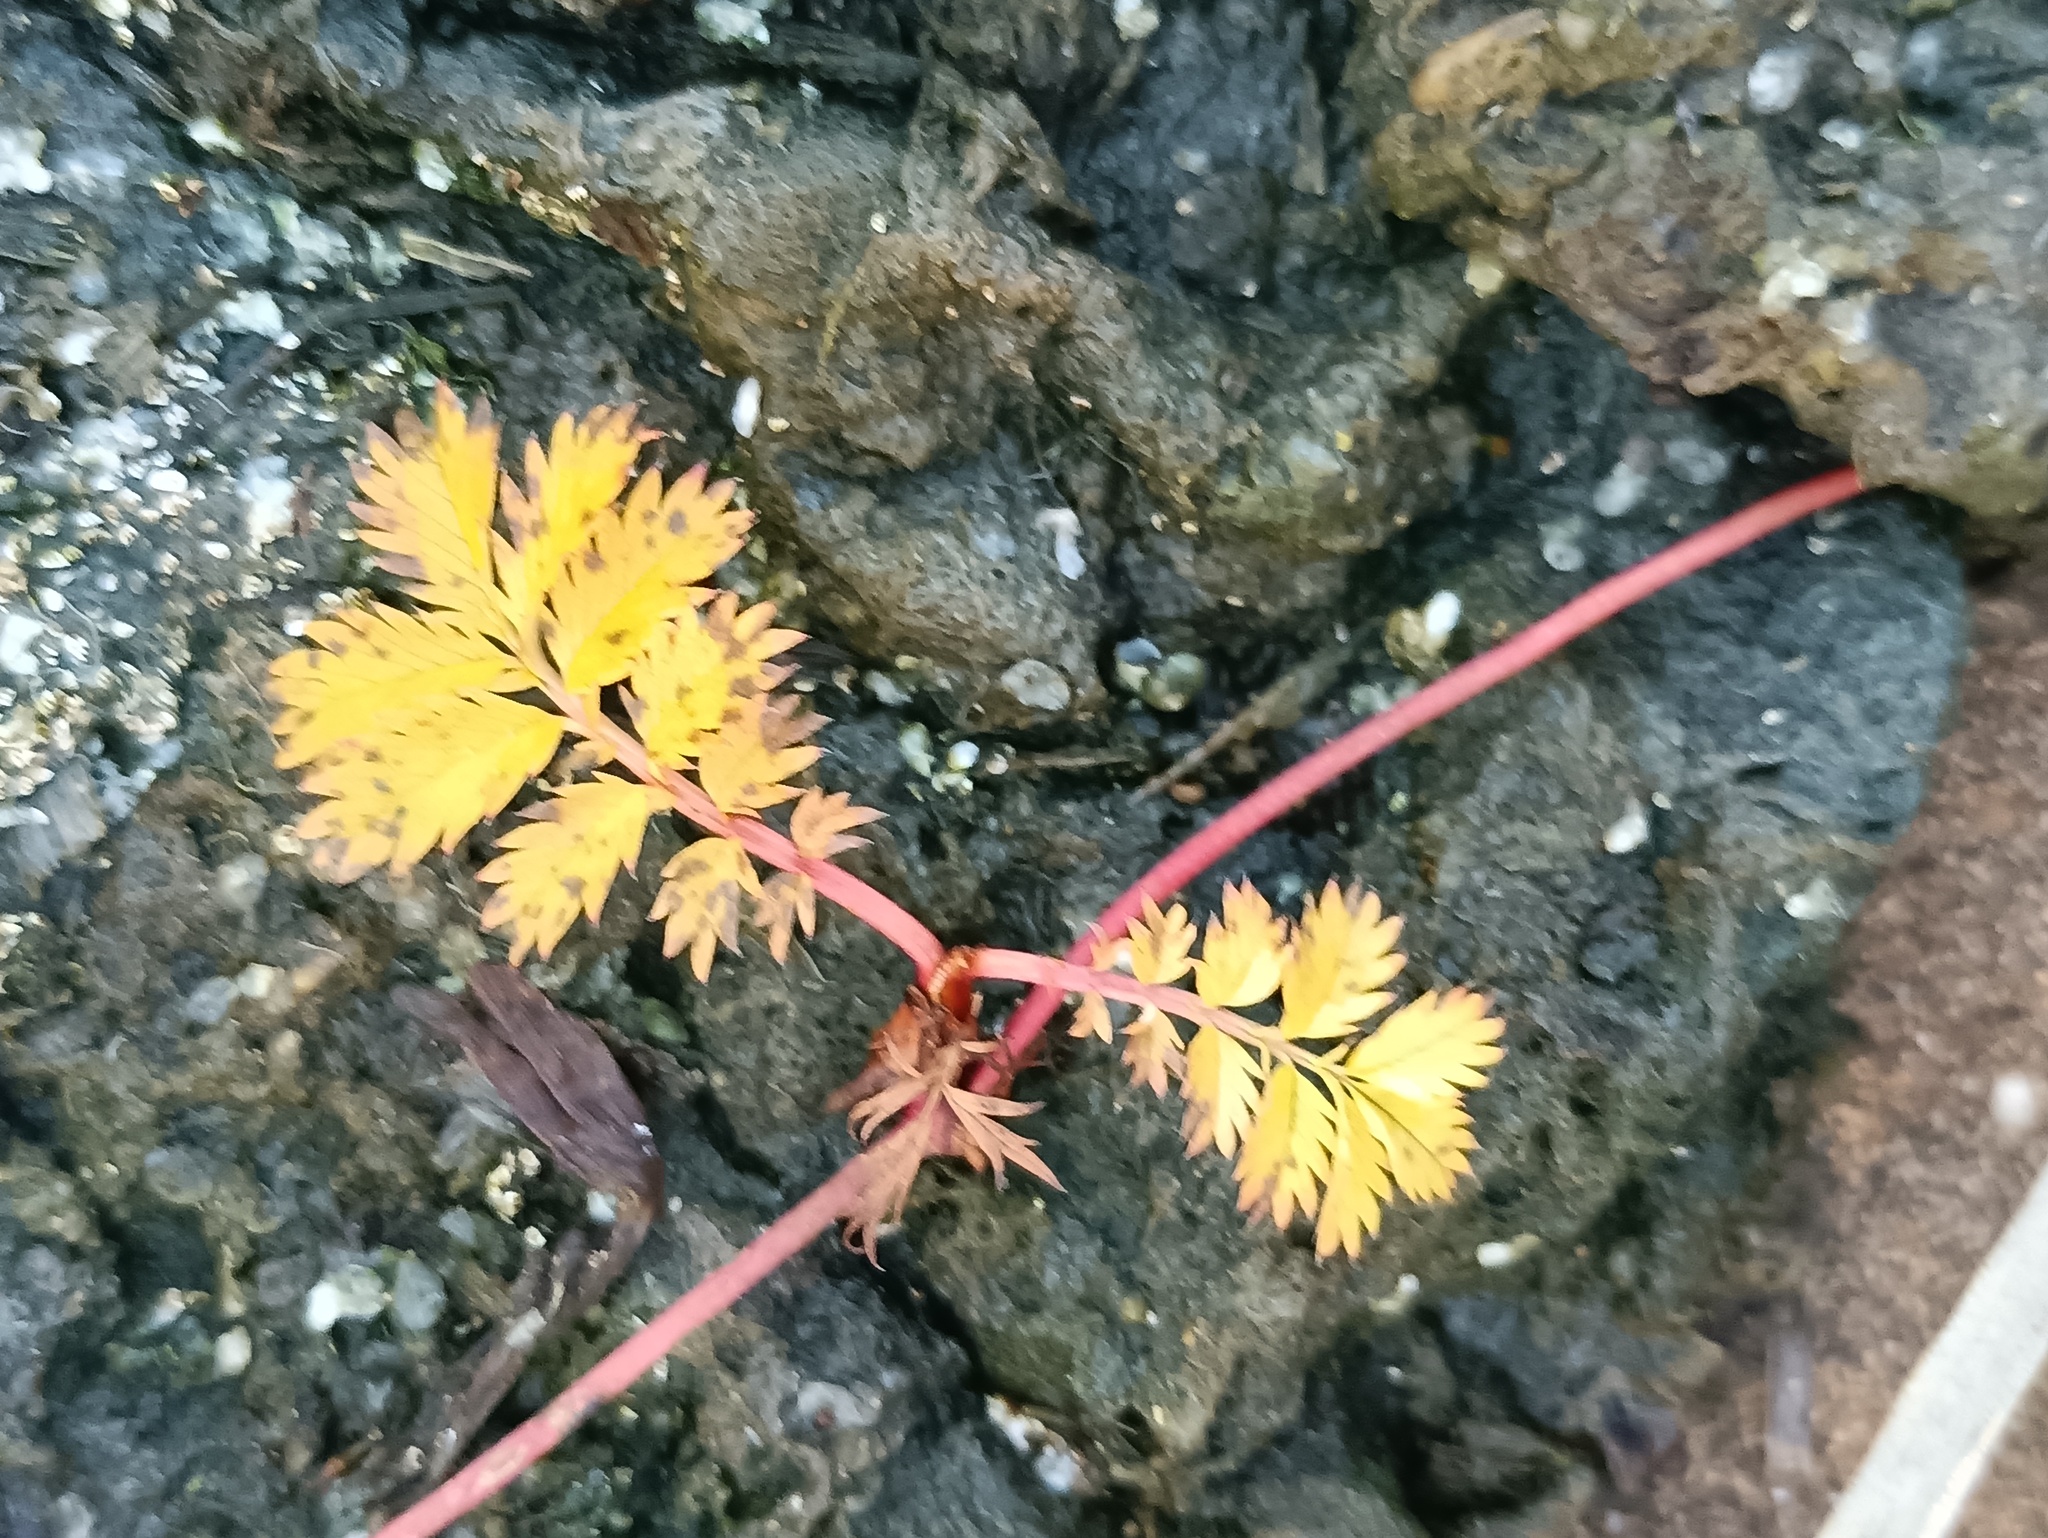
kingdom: Plantae
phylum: Tracheophyta
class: Magnoliopsida
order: Rosales
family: Rosaceae
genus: Argentina
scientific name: Argentina anserina
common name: Common silverweed
